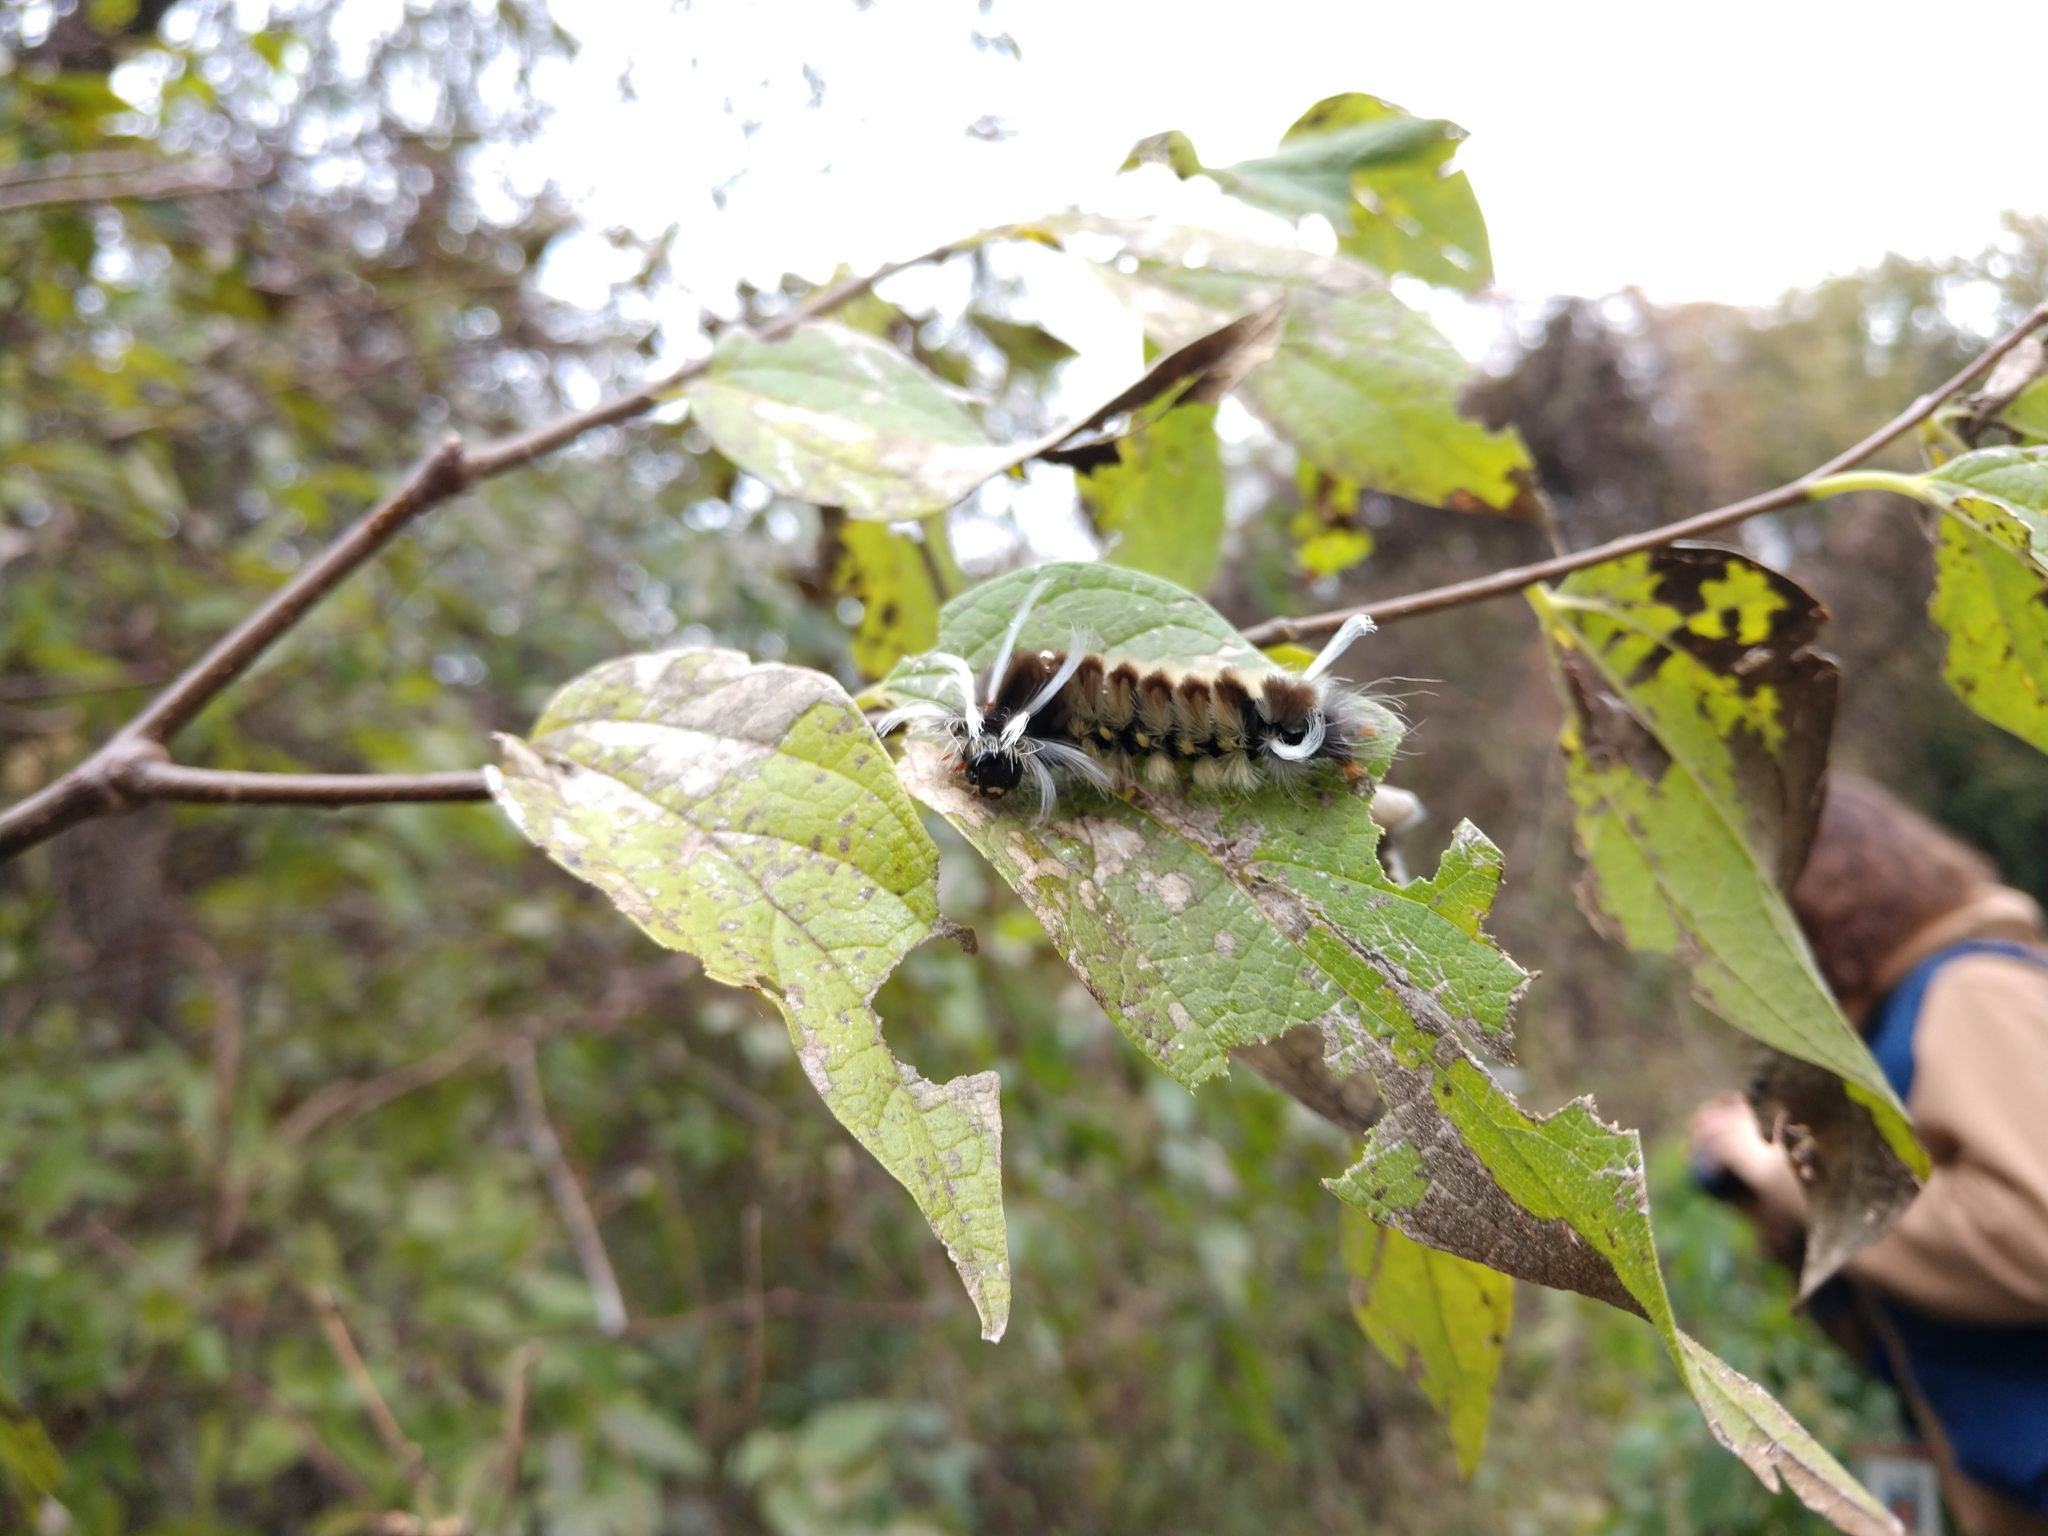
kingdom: Animalia
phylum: Arthropoda
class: Insecta
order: Lepidoptera
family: Erebidae
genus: Halysidota
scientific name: Halysidota schausi
